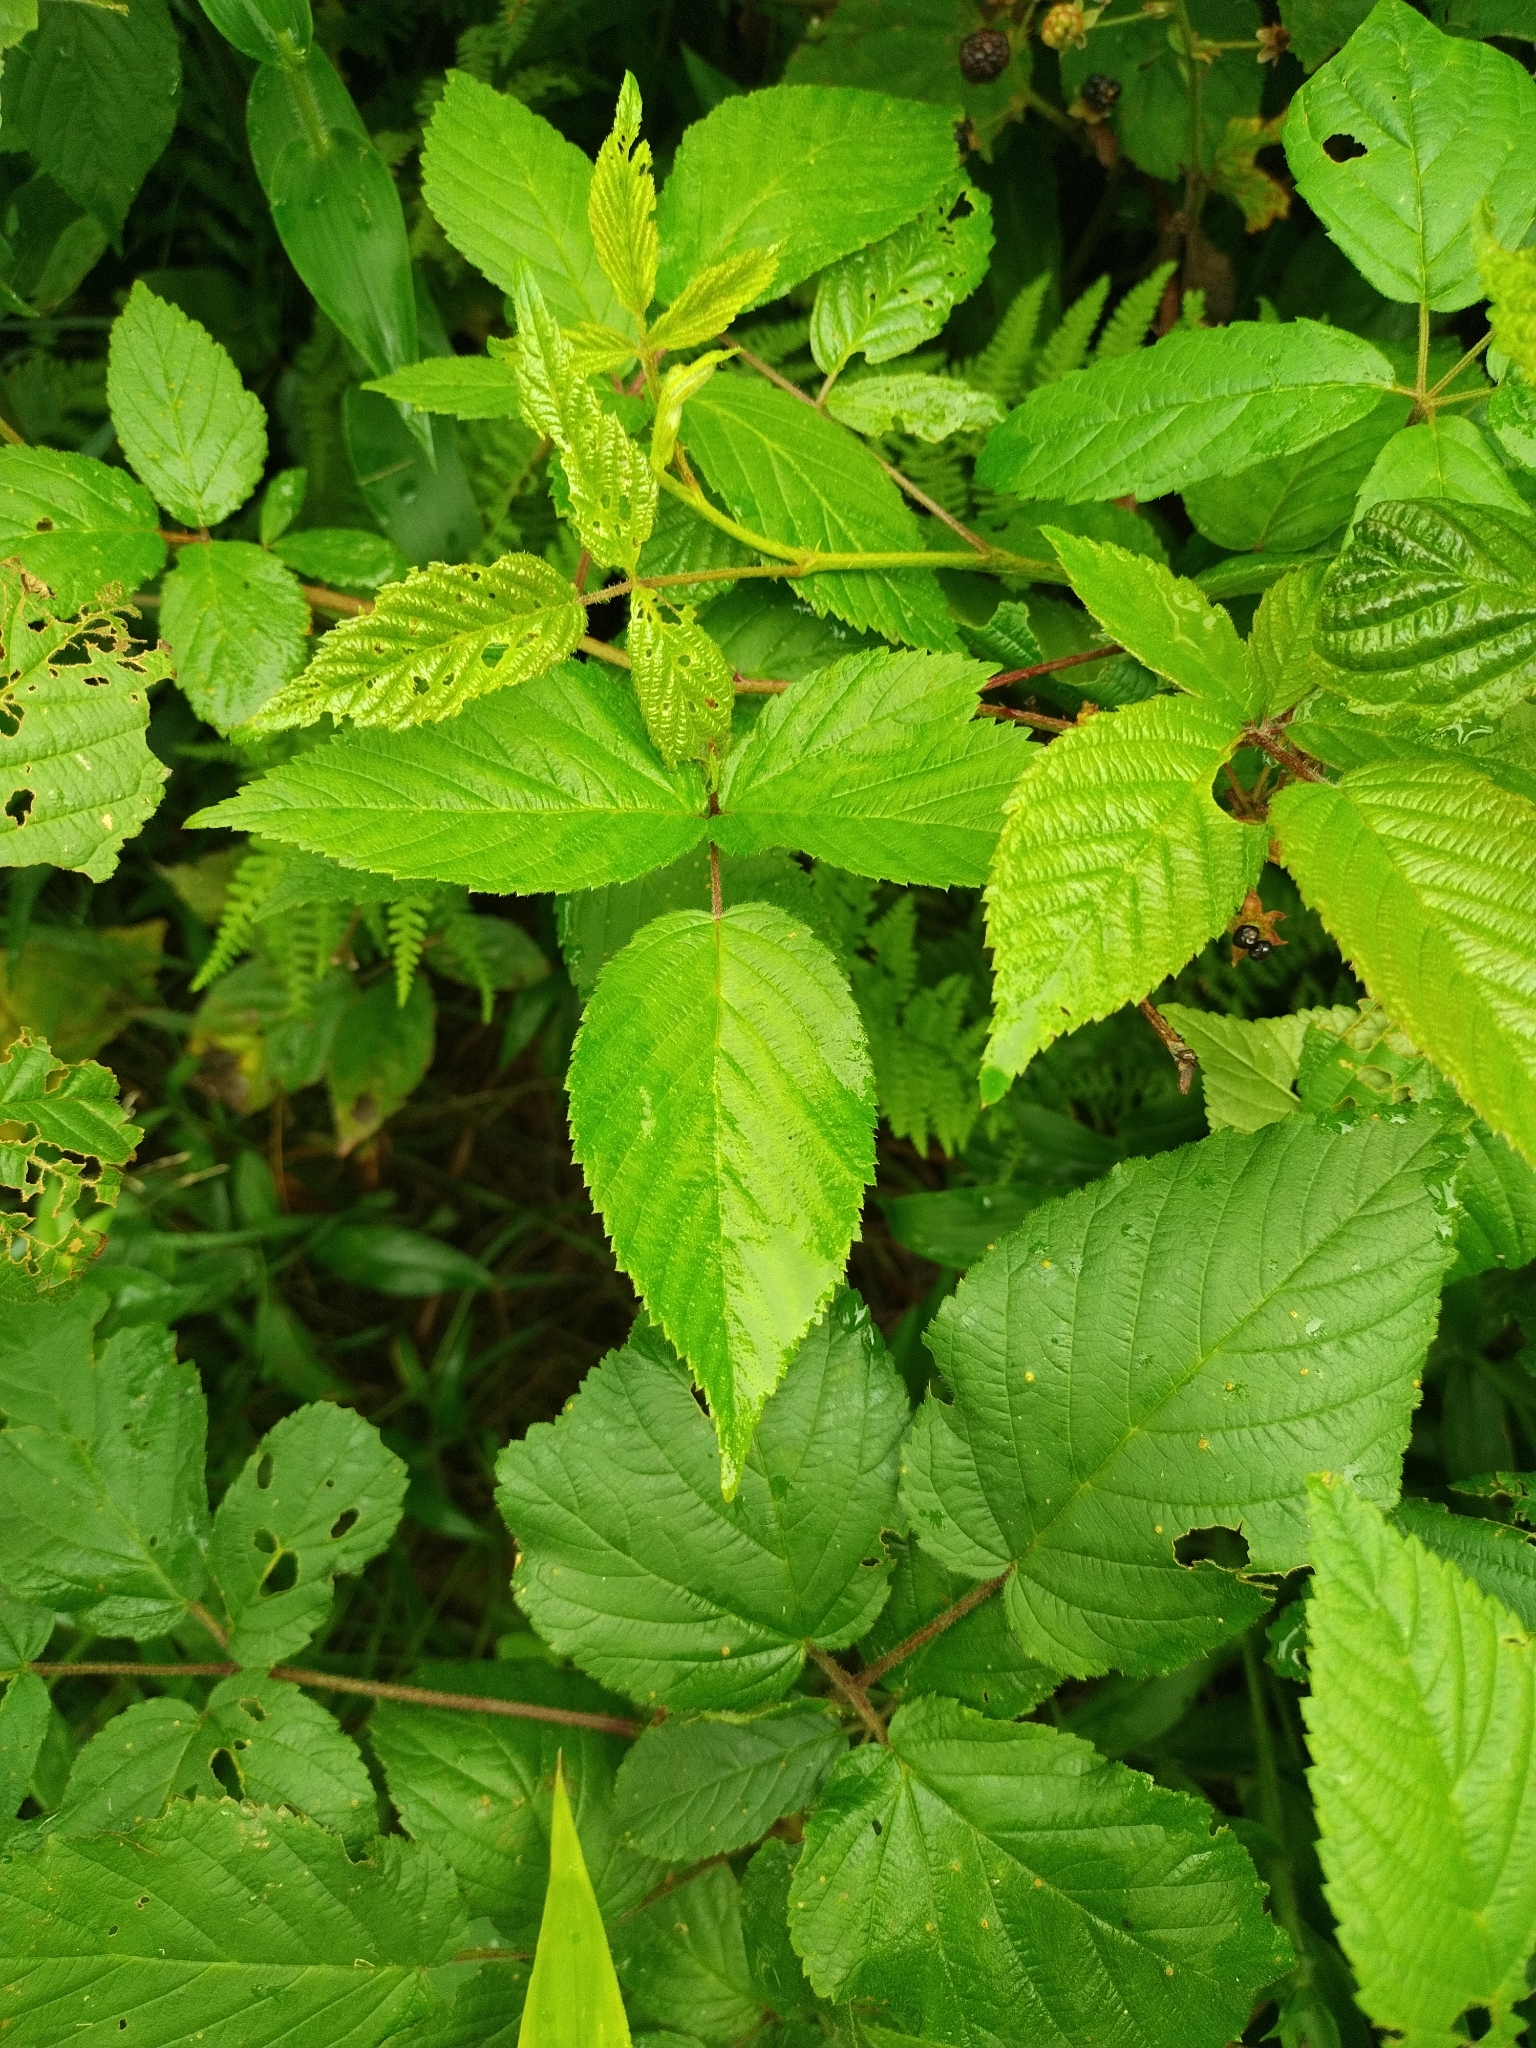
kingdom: Plantae
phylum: Tracheophyta
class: Magnoliopsida
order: Rosales
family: Rosaceae
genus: Rubus
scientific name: Rubus allegheniensis
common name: Allegheny blackberry
